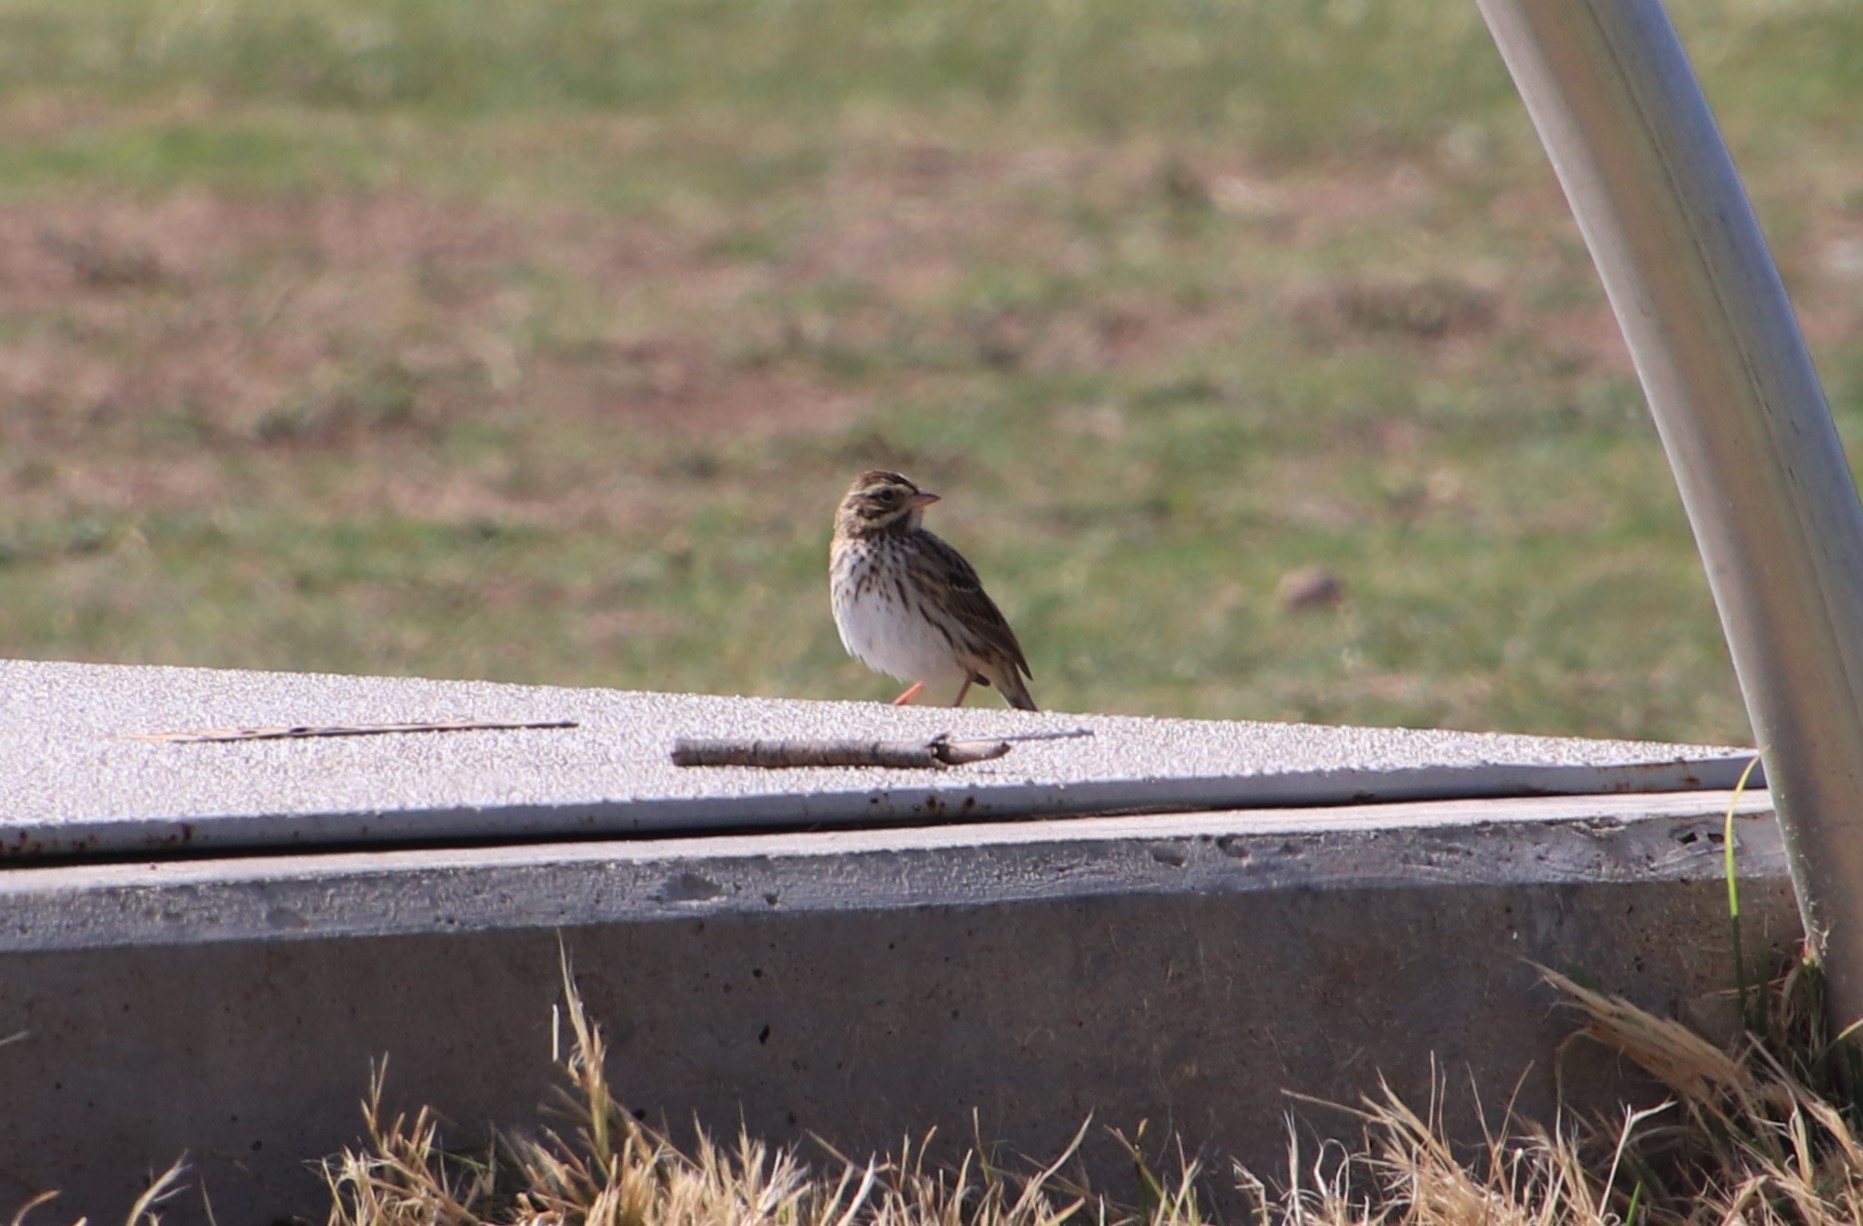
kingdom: Animalia
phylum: Chordata
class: Aves
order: Passeriformes
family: Passerellidae
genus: Passerculus
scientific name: Passerculus sandwichensis
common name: Savannah sparrow
